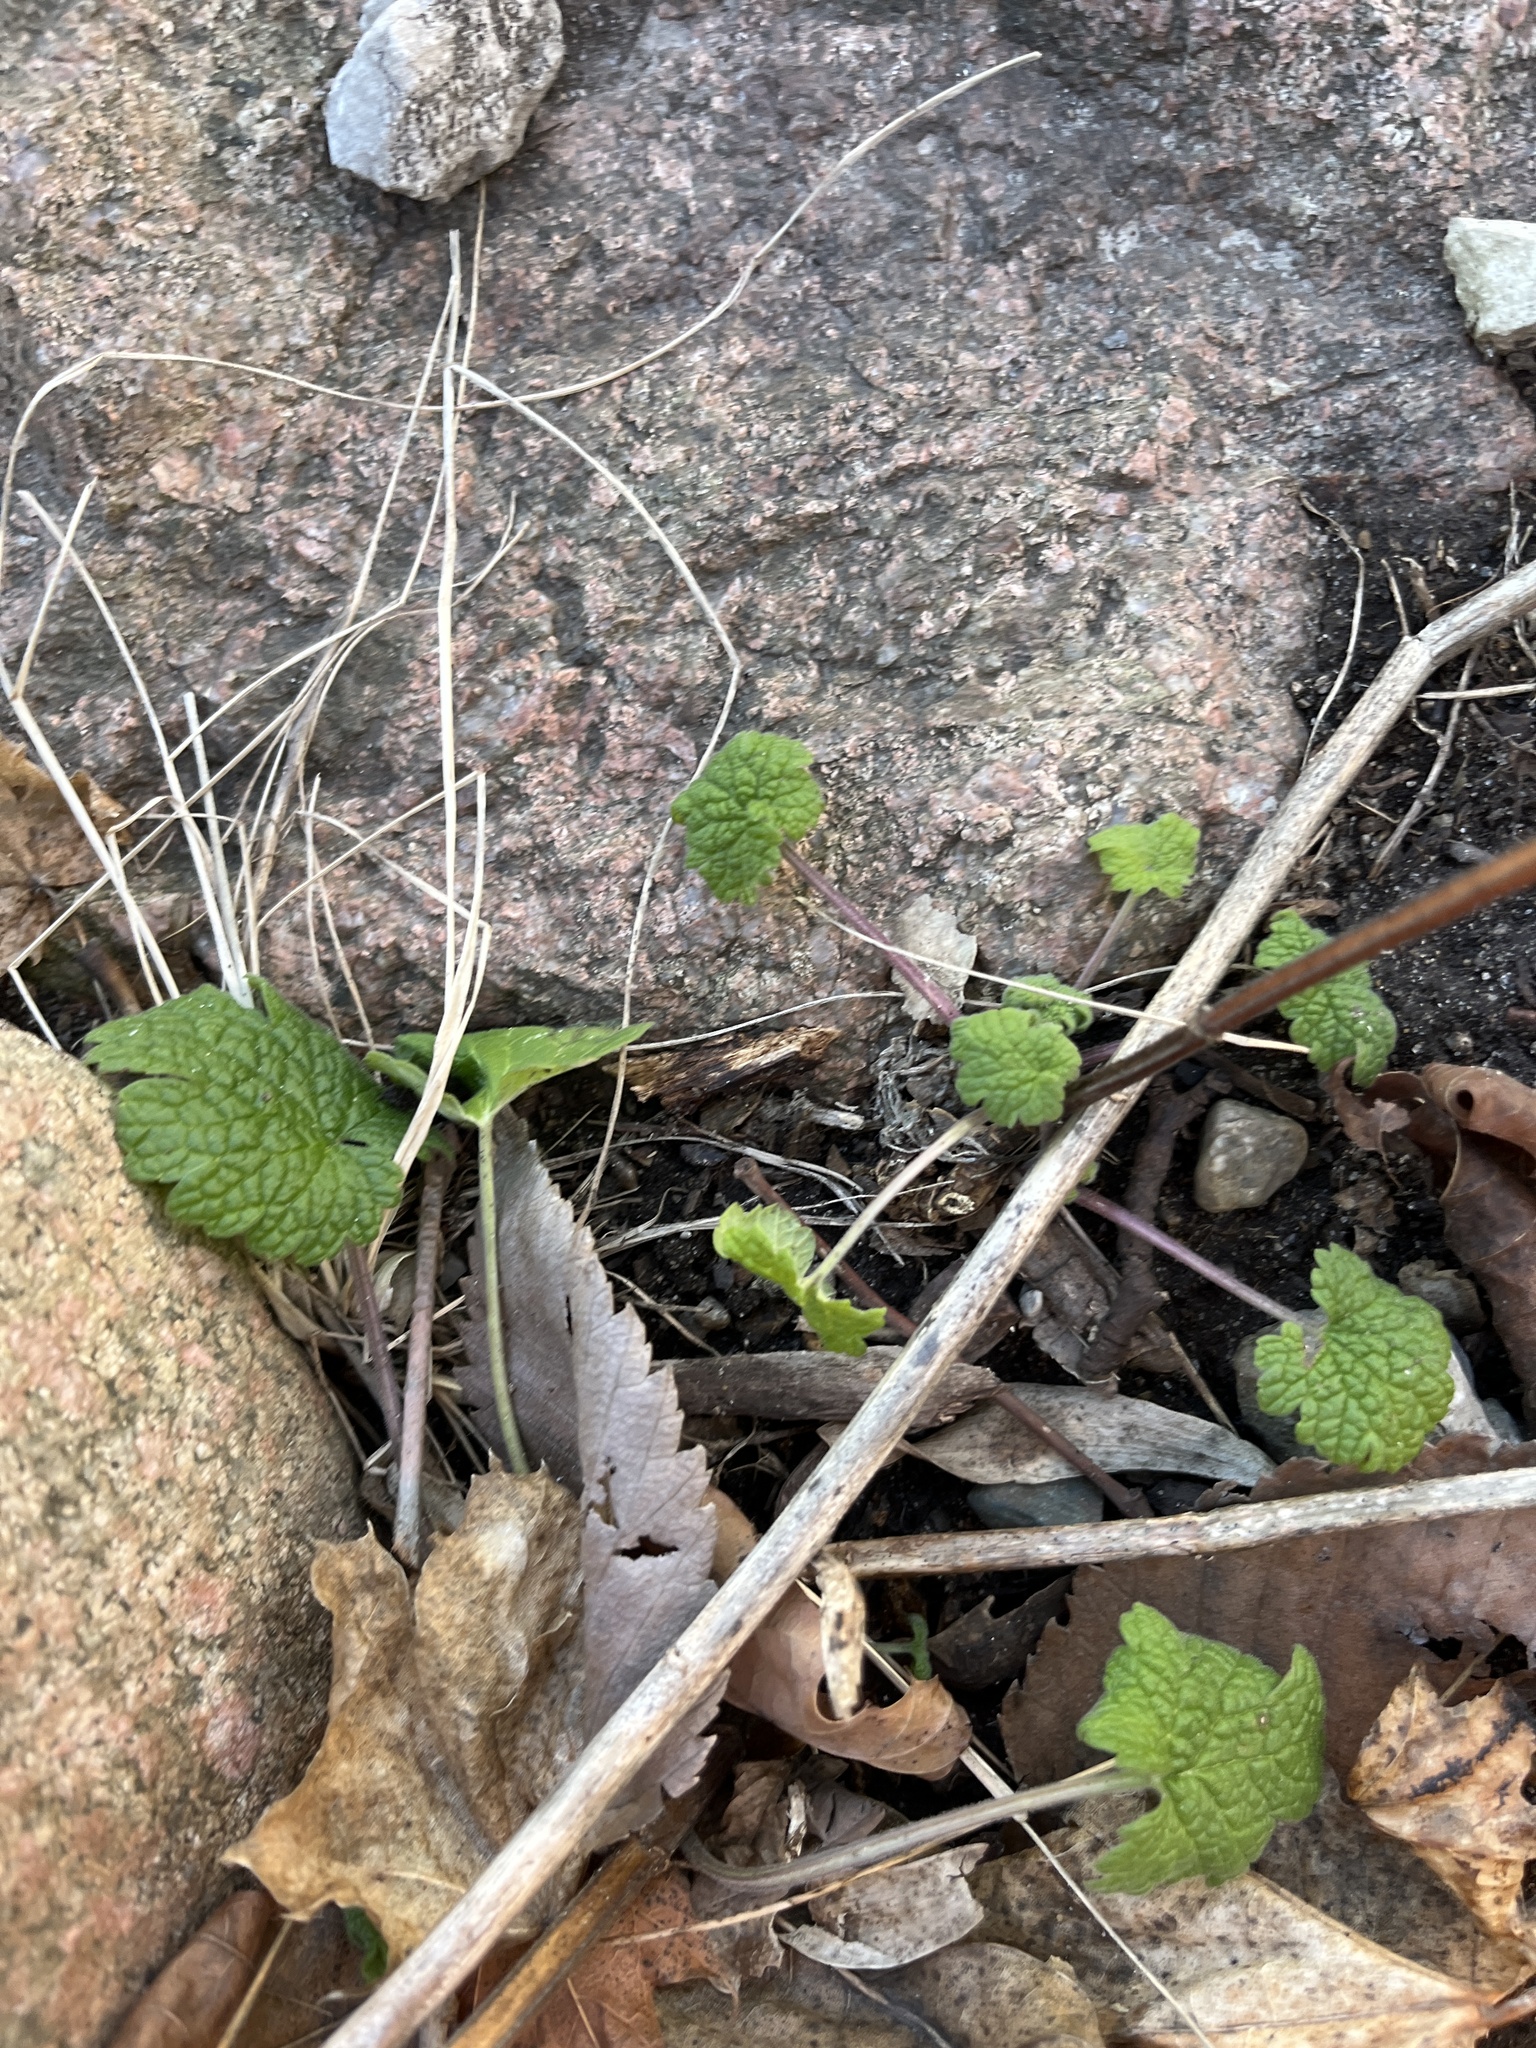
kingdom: Plantae
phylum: Tracheophyta
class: Magnoliopsida
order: Lamiales
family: Lamiaceae
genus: Leonurus
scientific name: Leonurus cardiaca
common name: Motherwort
